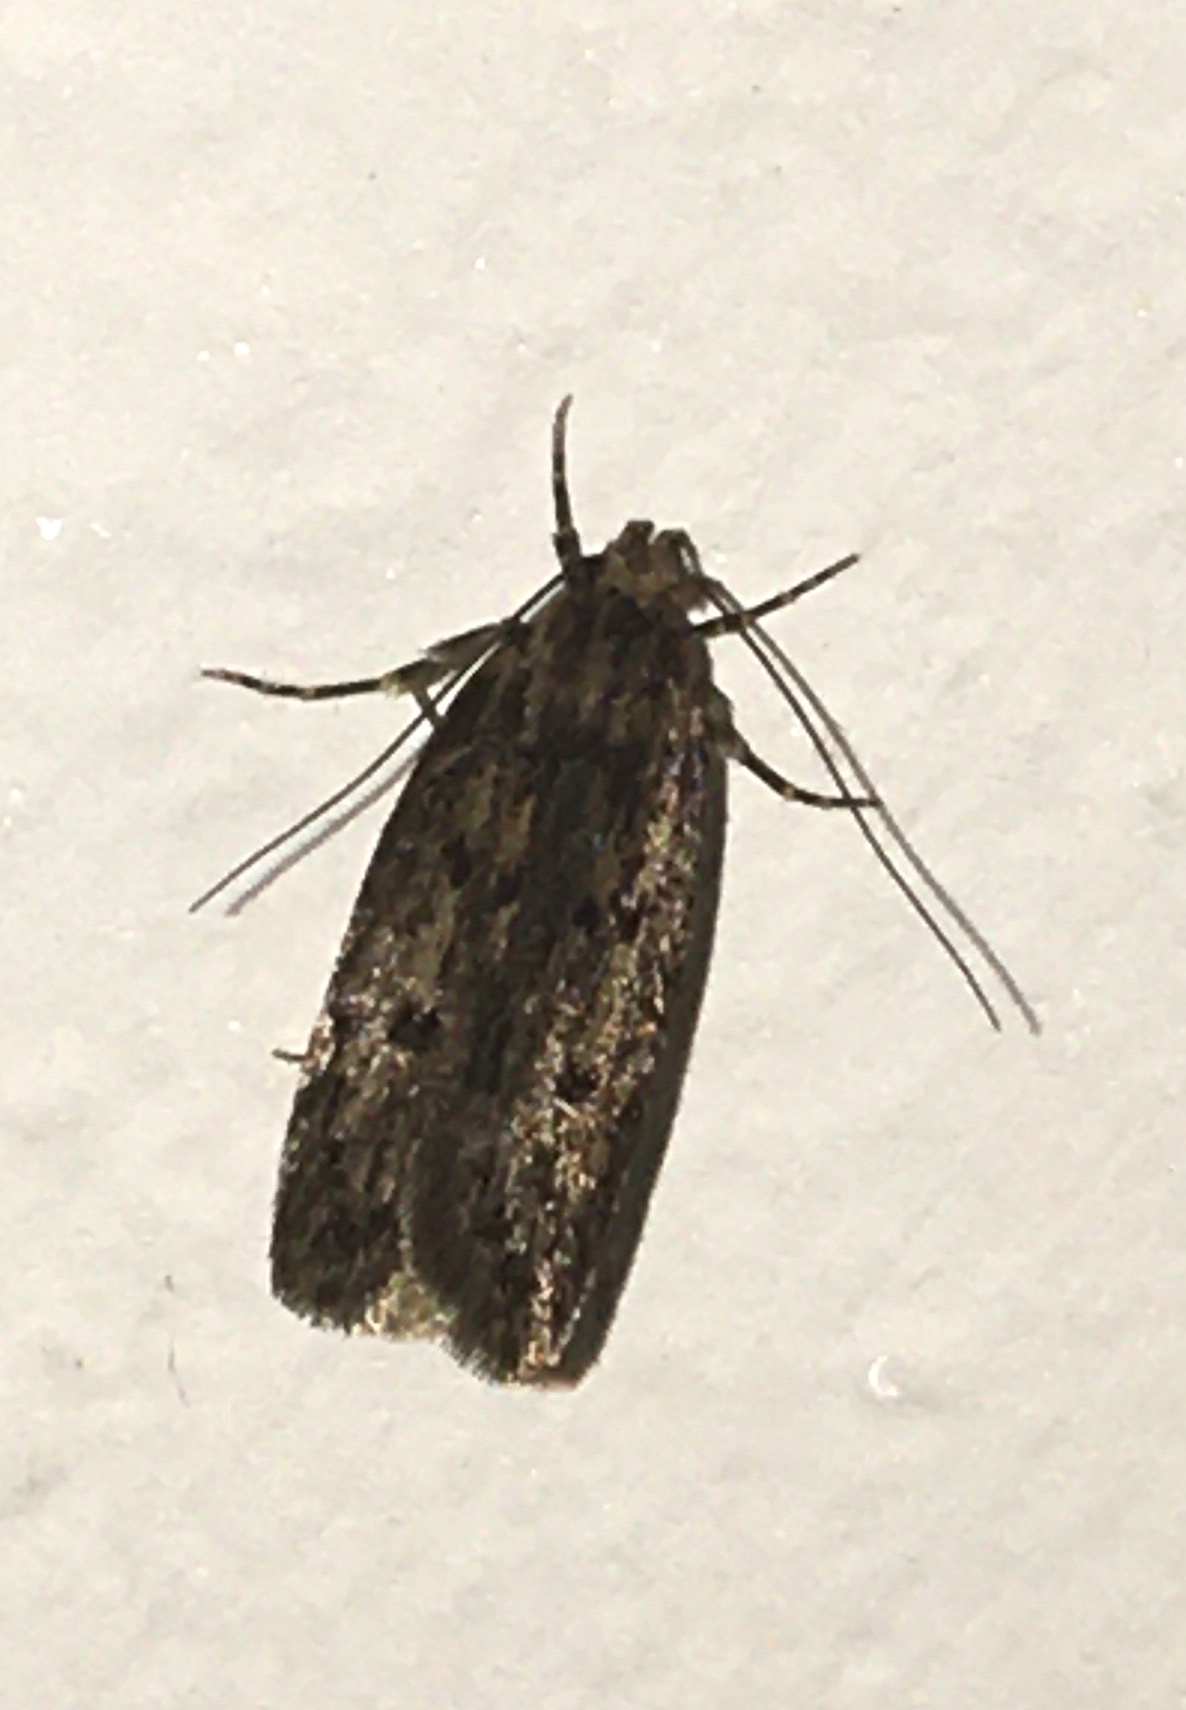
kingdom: Animalia
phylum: Arthropoda
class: Insecta
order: Lepidoptera
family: Oecophoridae
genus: Hofmannophila
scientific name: Hofmannophila pseudospretella
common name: Brown house moth
